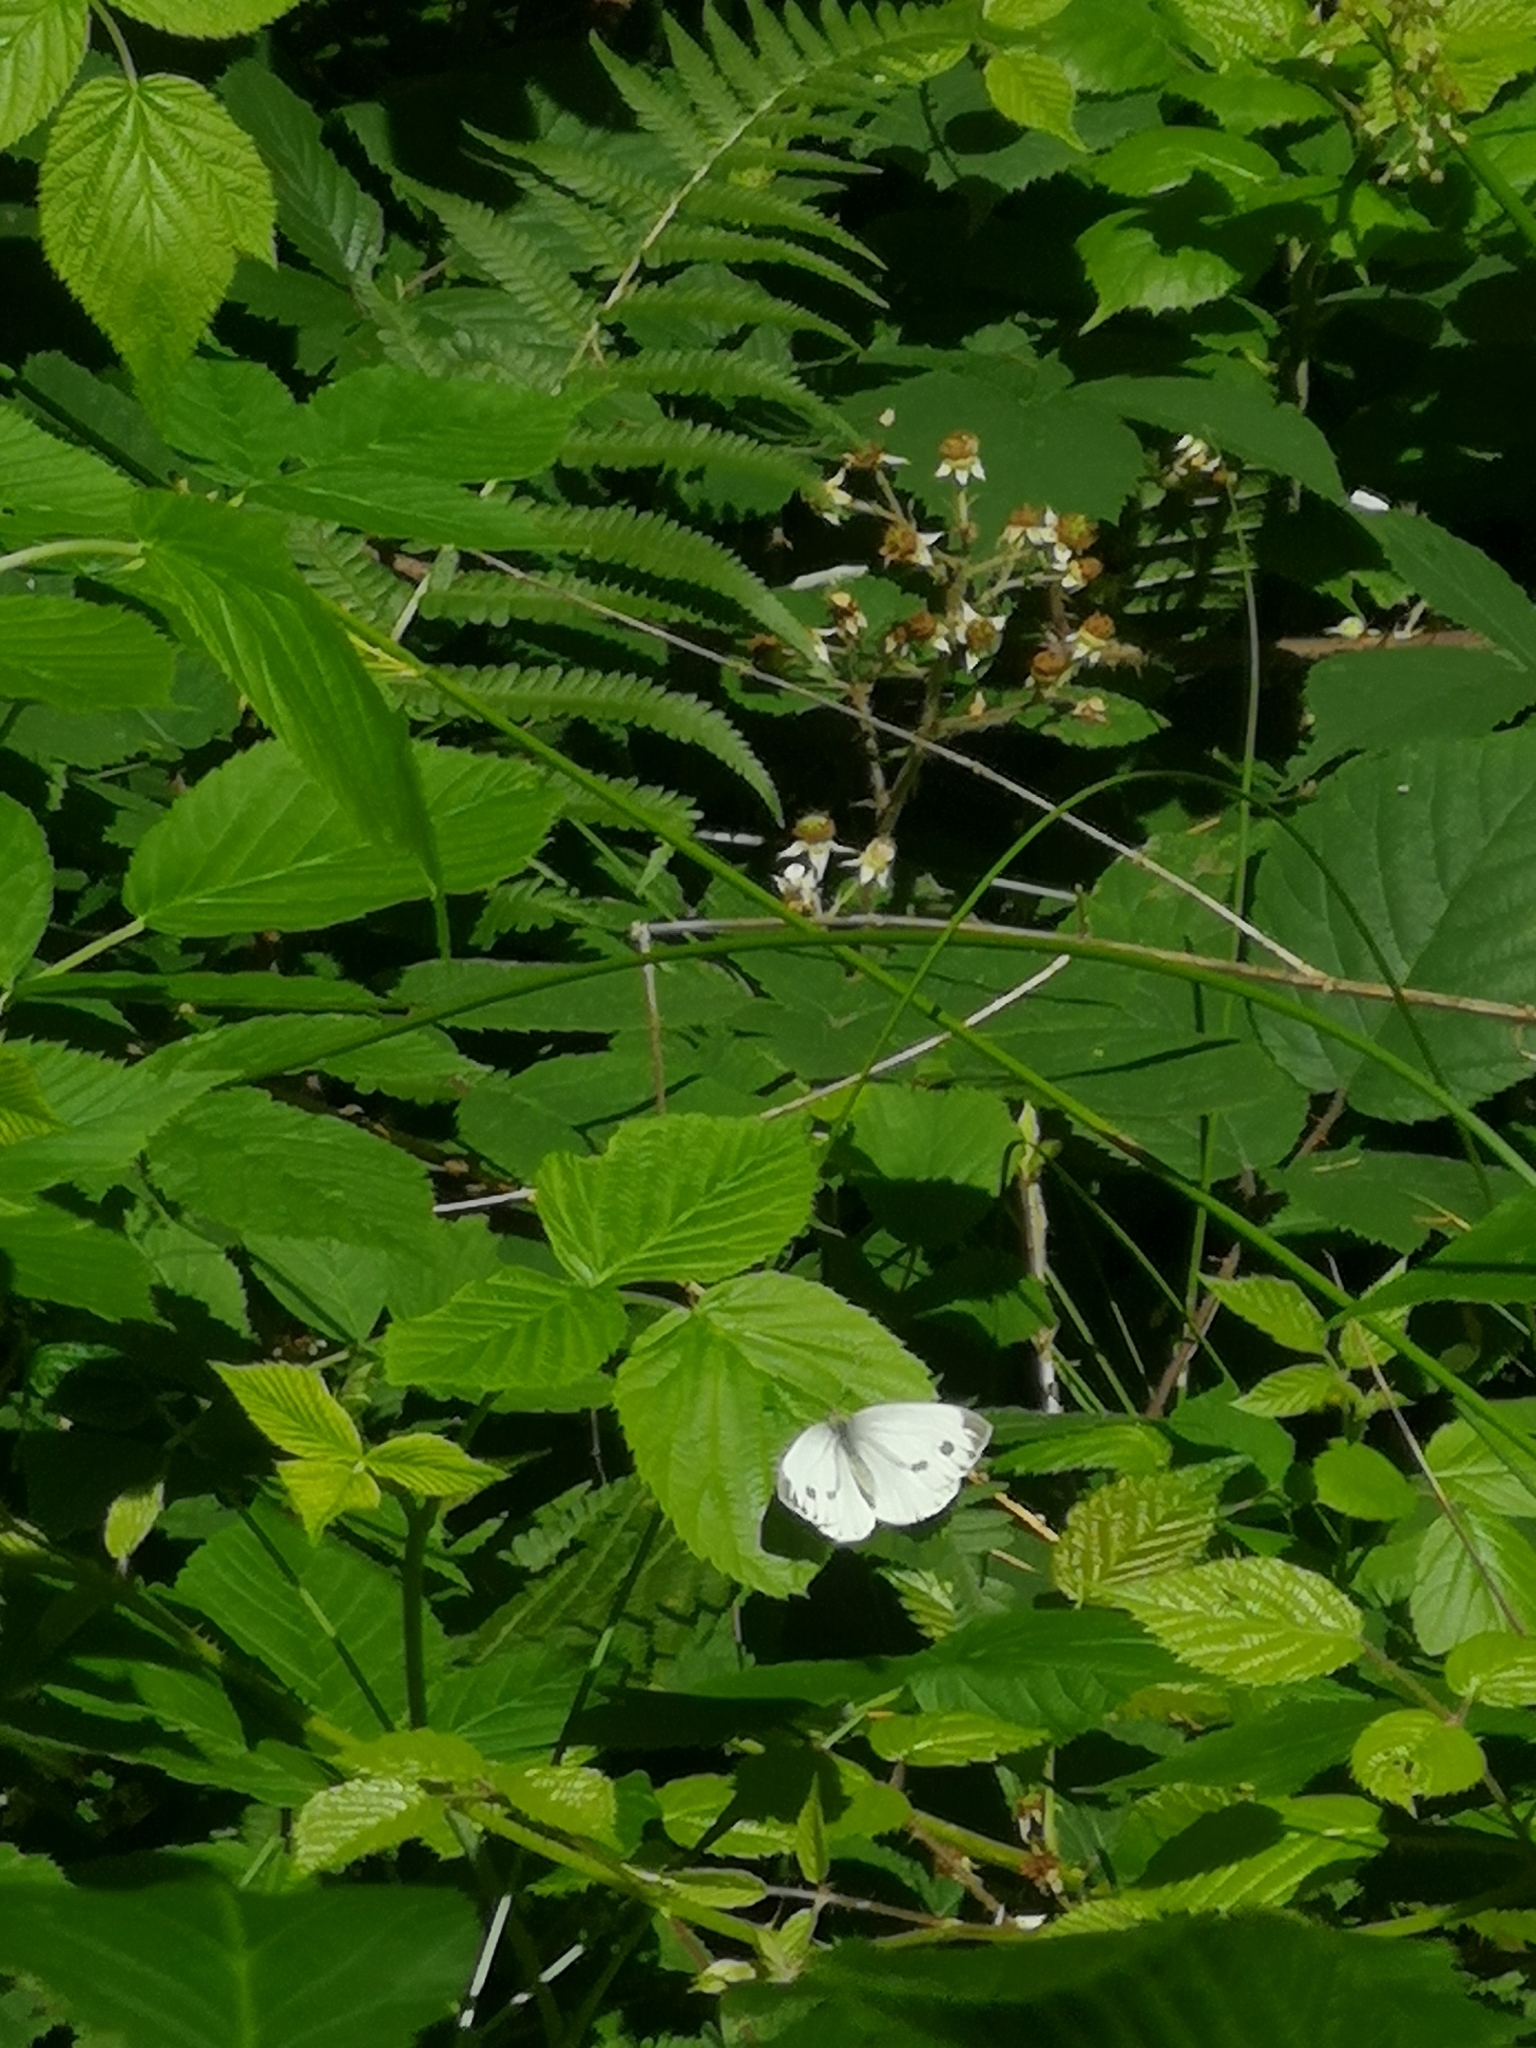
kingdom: Animalia
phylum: Arthropoda
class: Insecta
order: Lepidoptera
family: Pieridae
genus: Pieris
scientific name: Pieris napi
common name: Green-veined white
